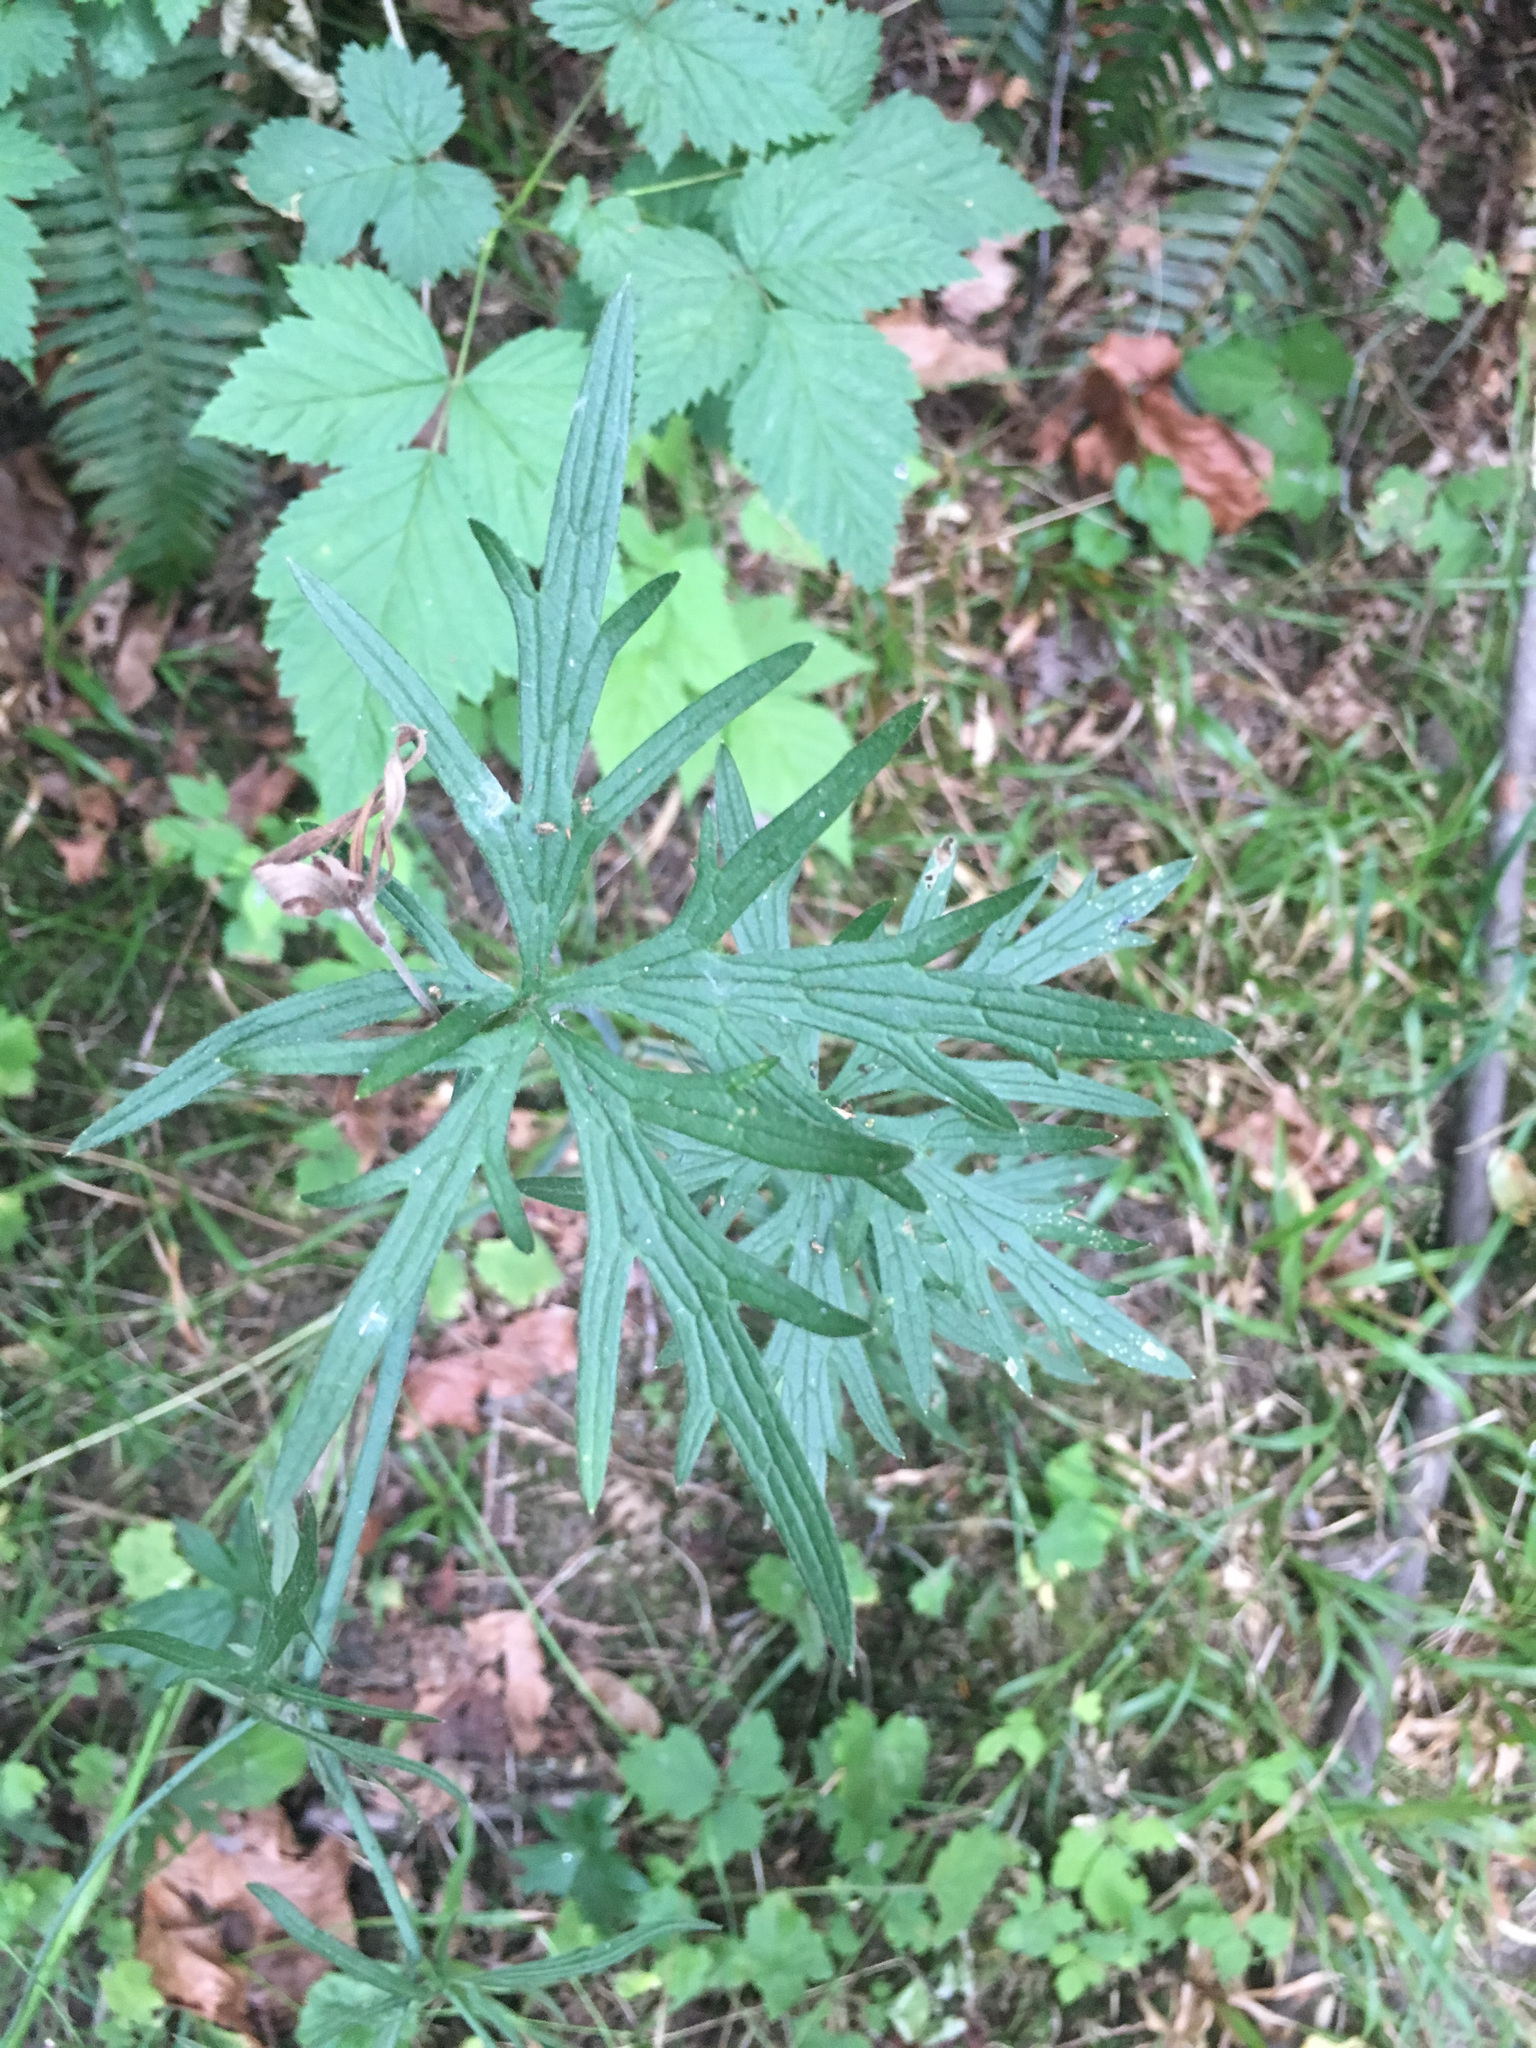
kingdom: Plantae
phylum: Tracheophyta
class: Magnoliopsida
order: Ranunculales
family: Ranunculaceae
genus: Ranunculus
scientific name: Ranunculus acris
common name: Meadow buttercup
